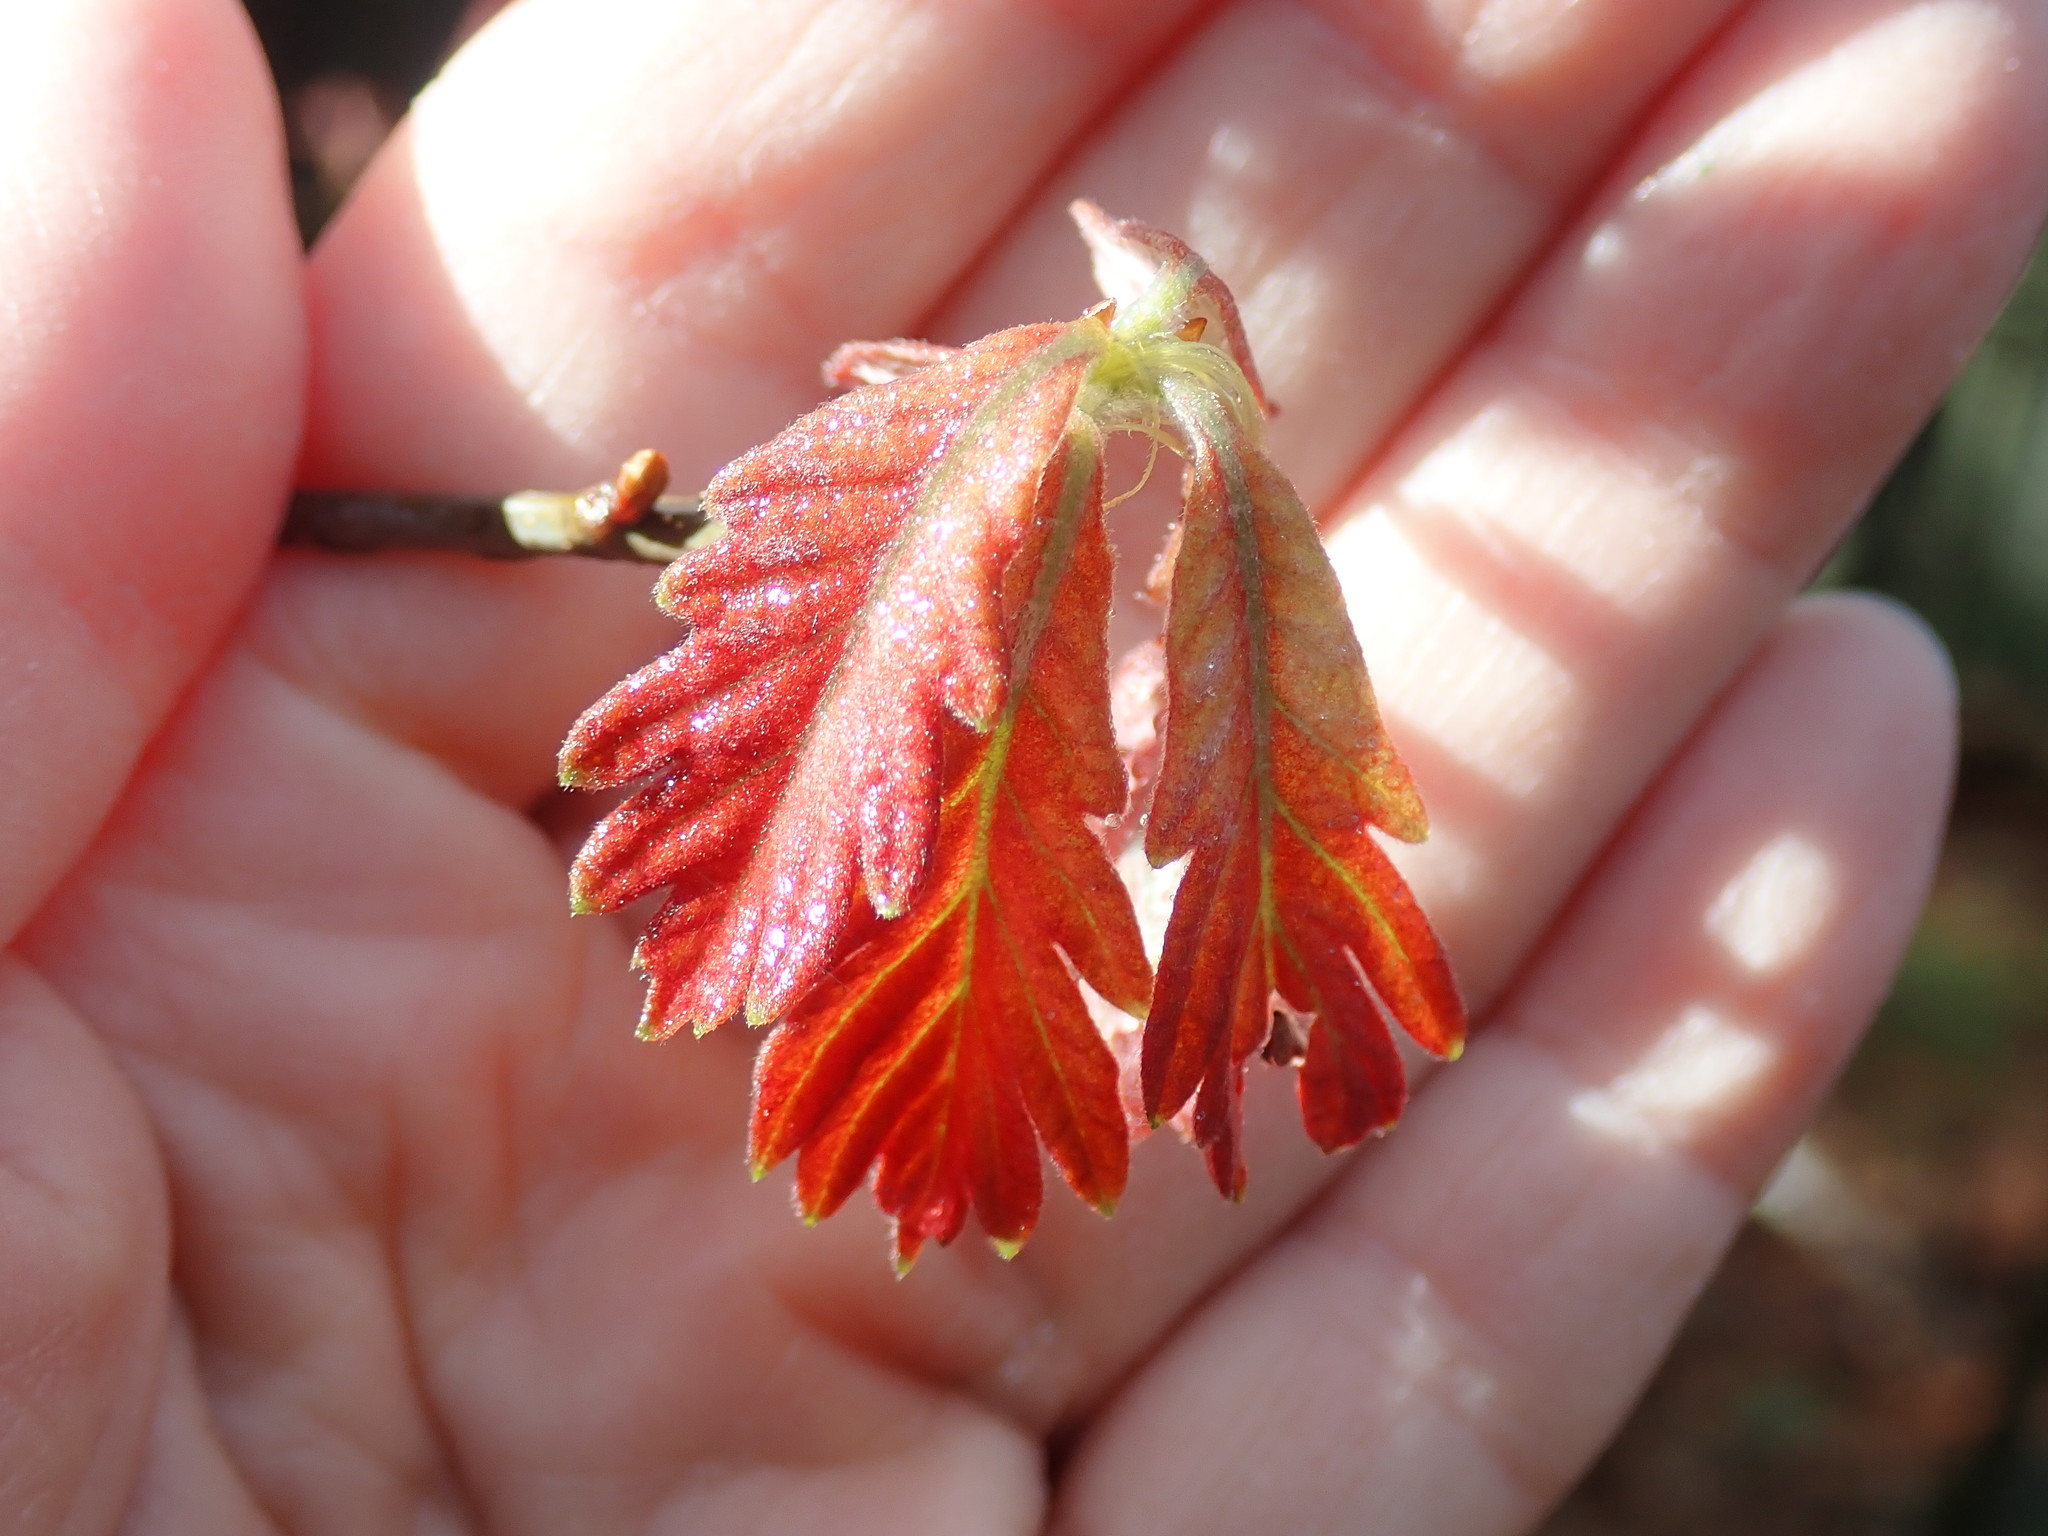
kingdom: Plantae
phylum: Tracheophyta
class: Magnoliopsida
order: Fagales
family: Fagaceae
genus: Quercus
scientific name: Quercus alba
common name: White oak
